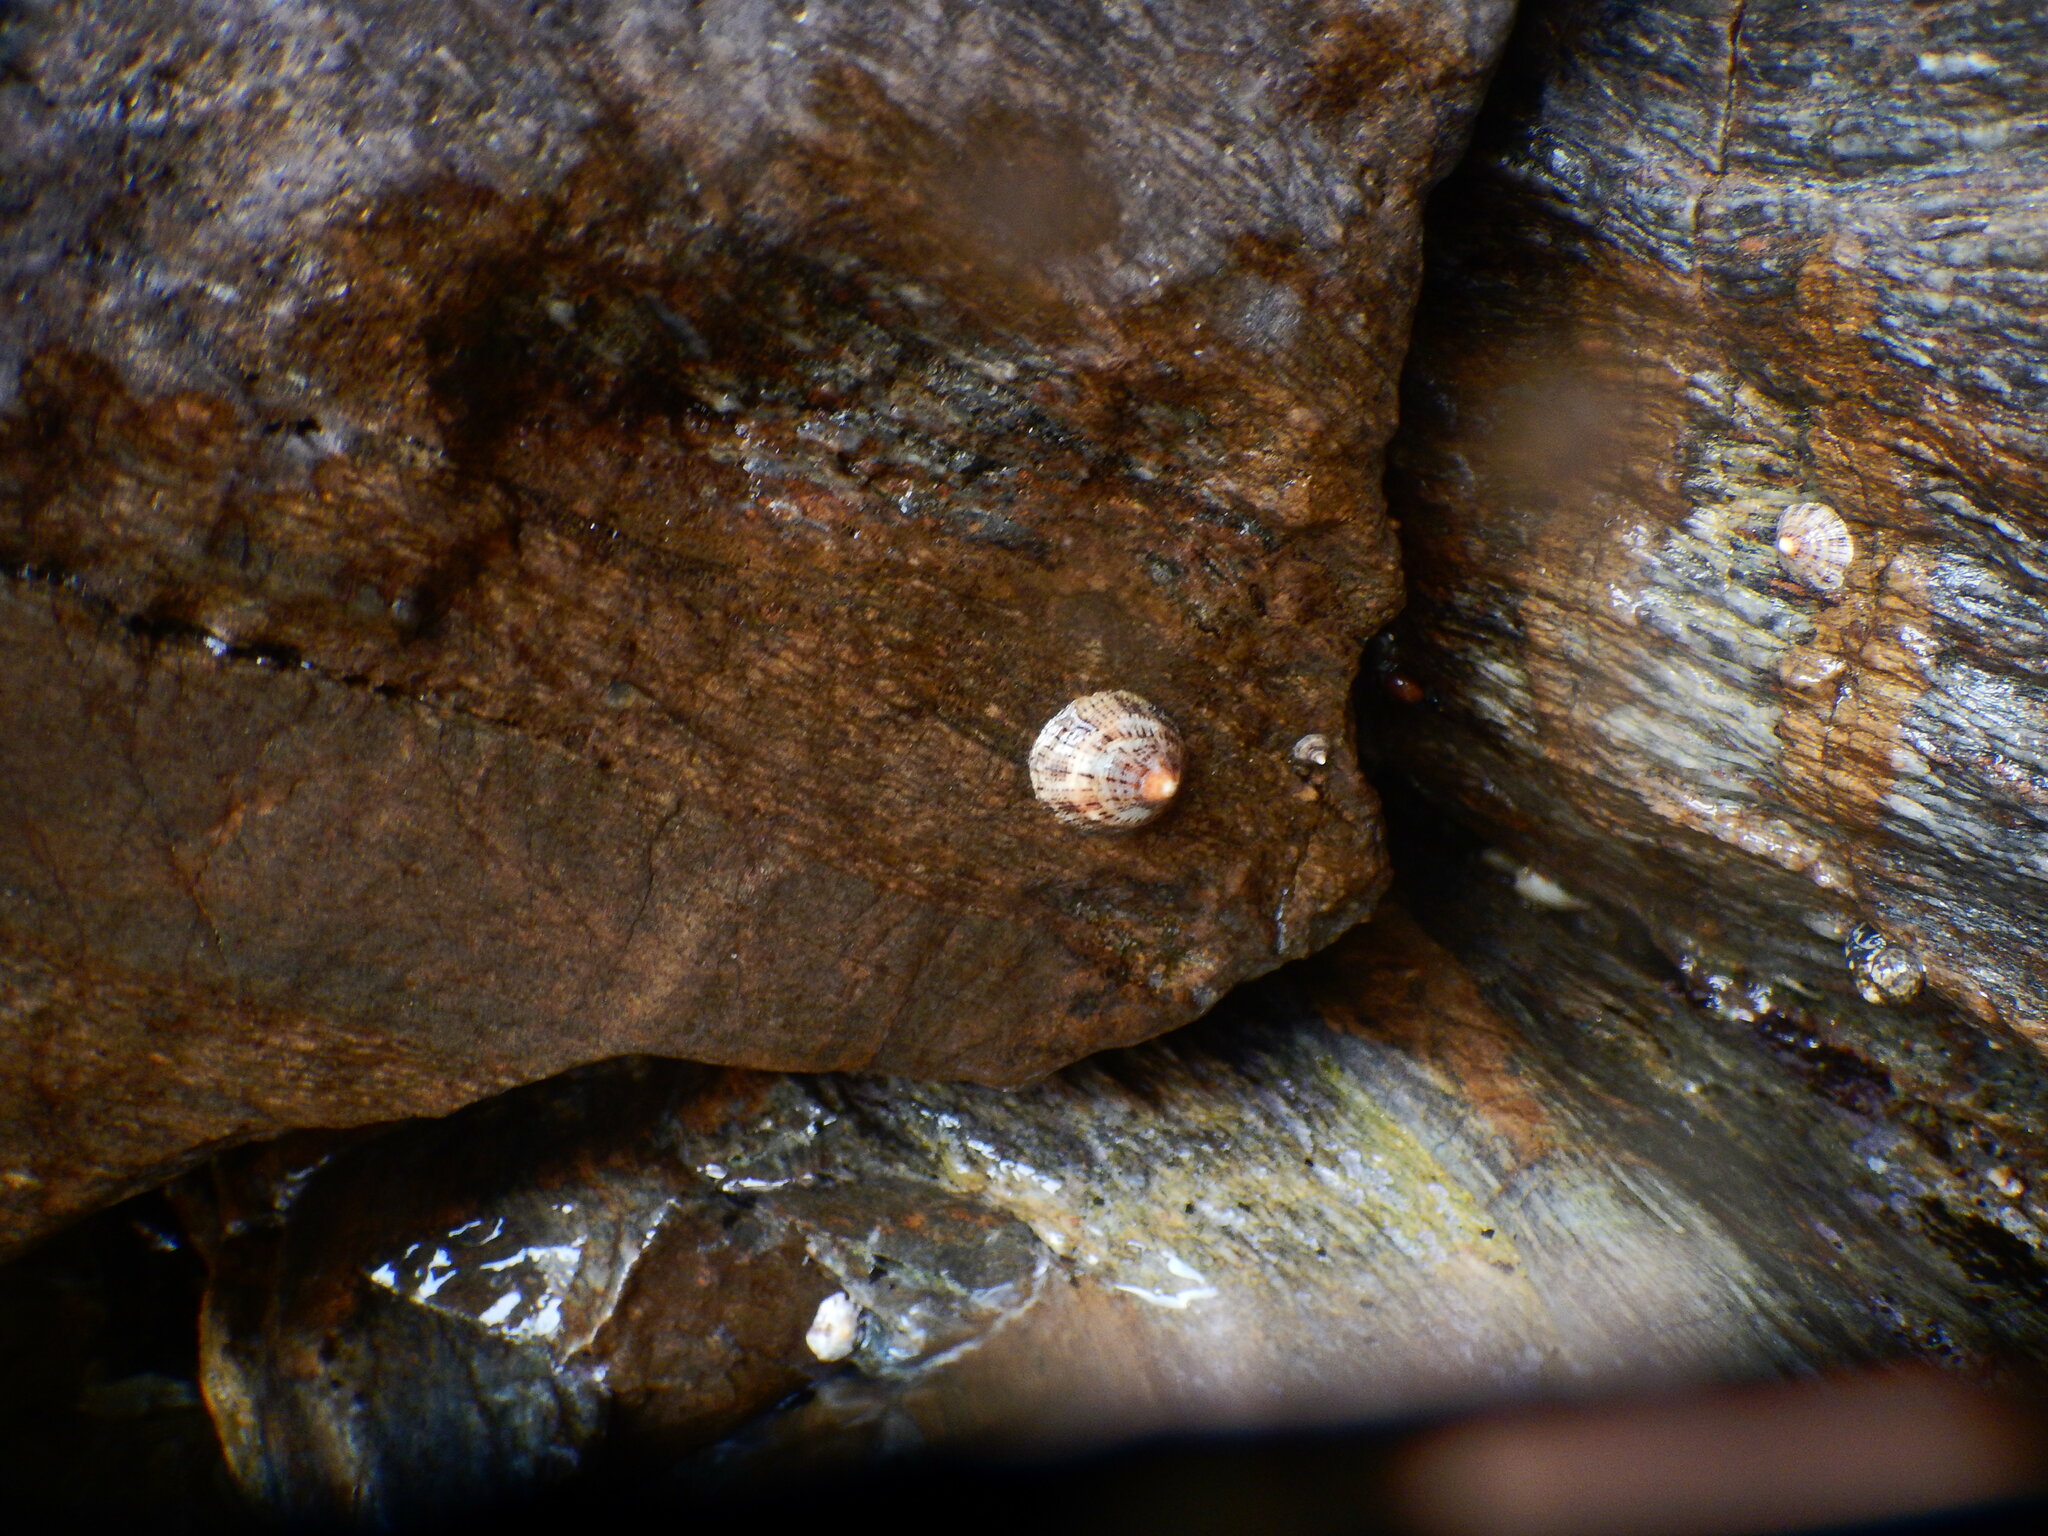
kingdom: Animalia
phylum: Mollusca
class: Gastropoda
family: Patellidae
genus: Patella
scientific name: Patella rustica
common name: Lusitanian limpet
